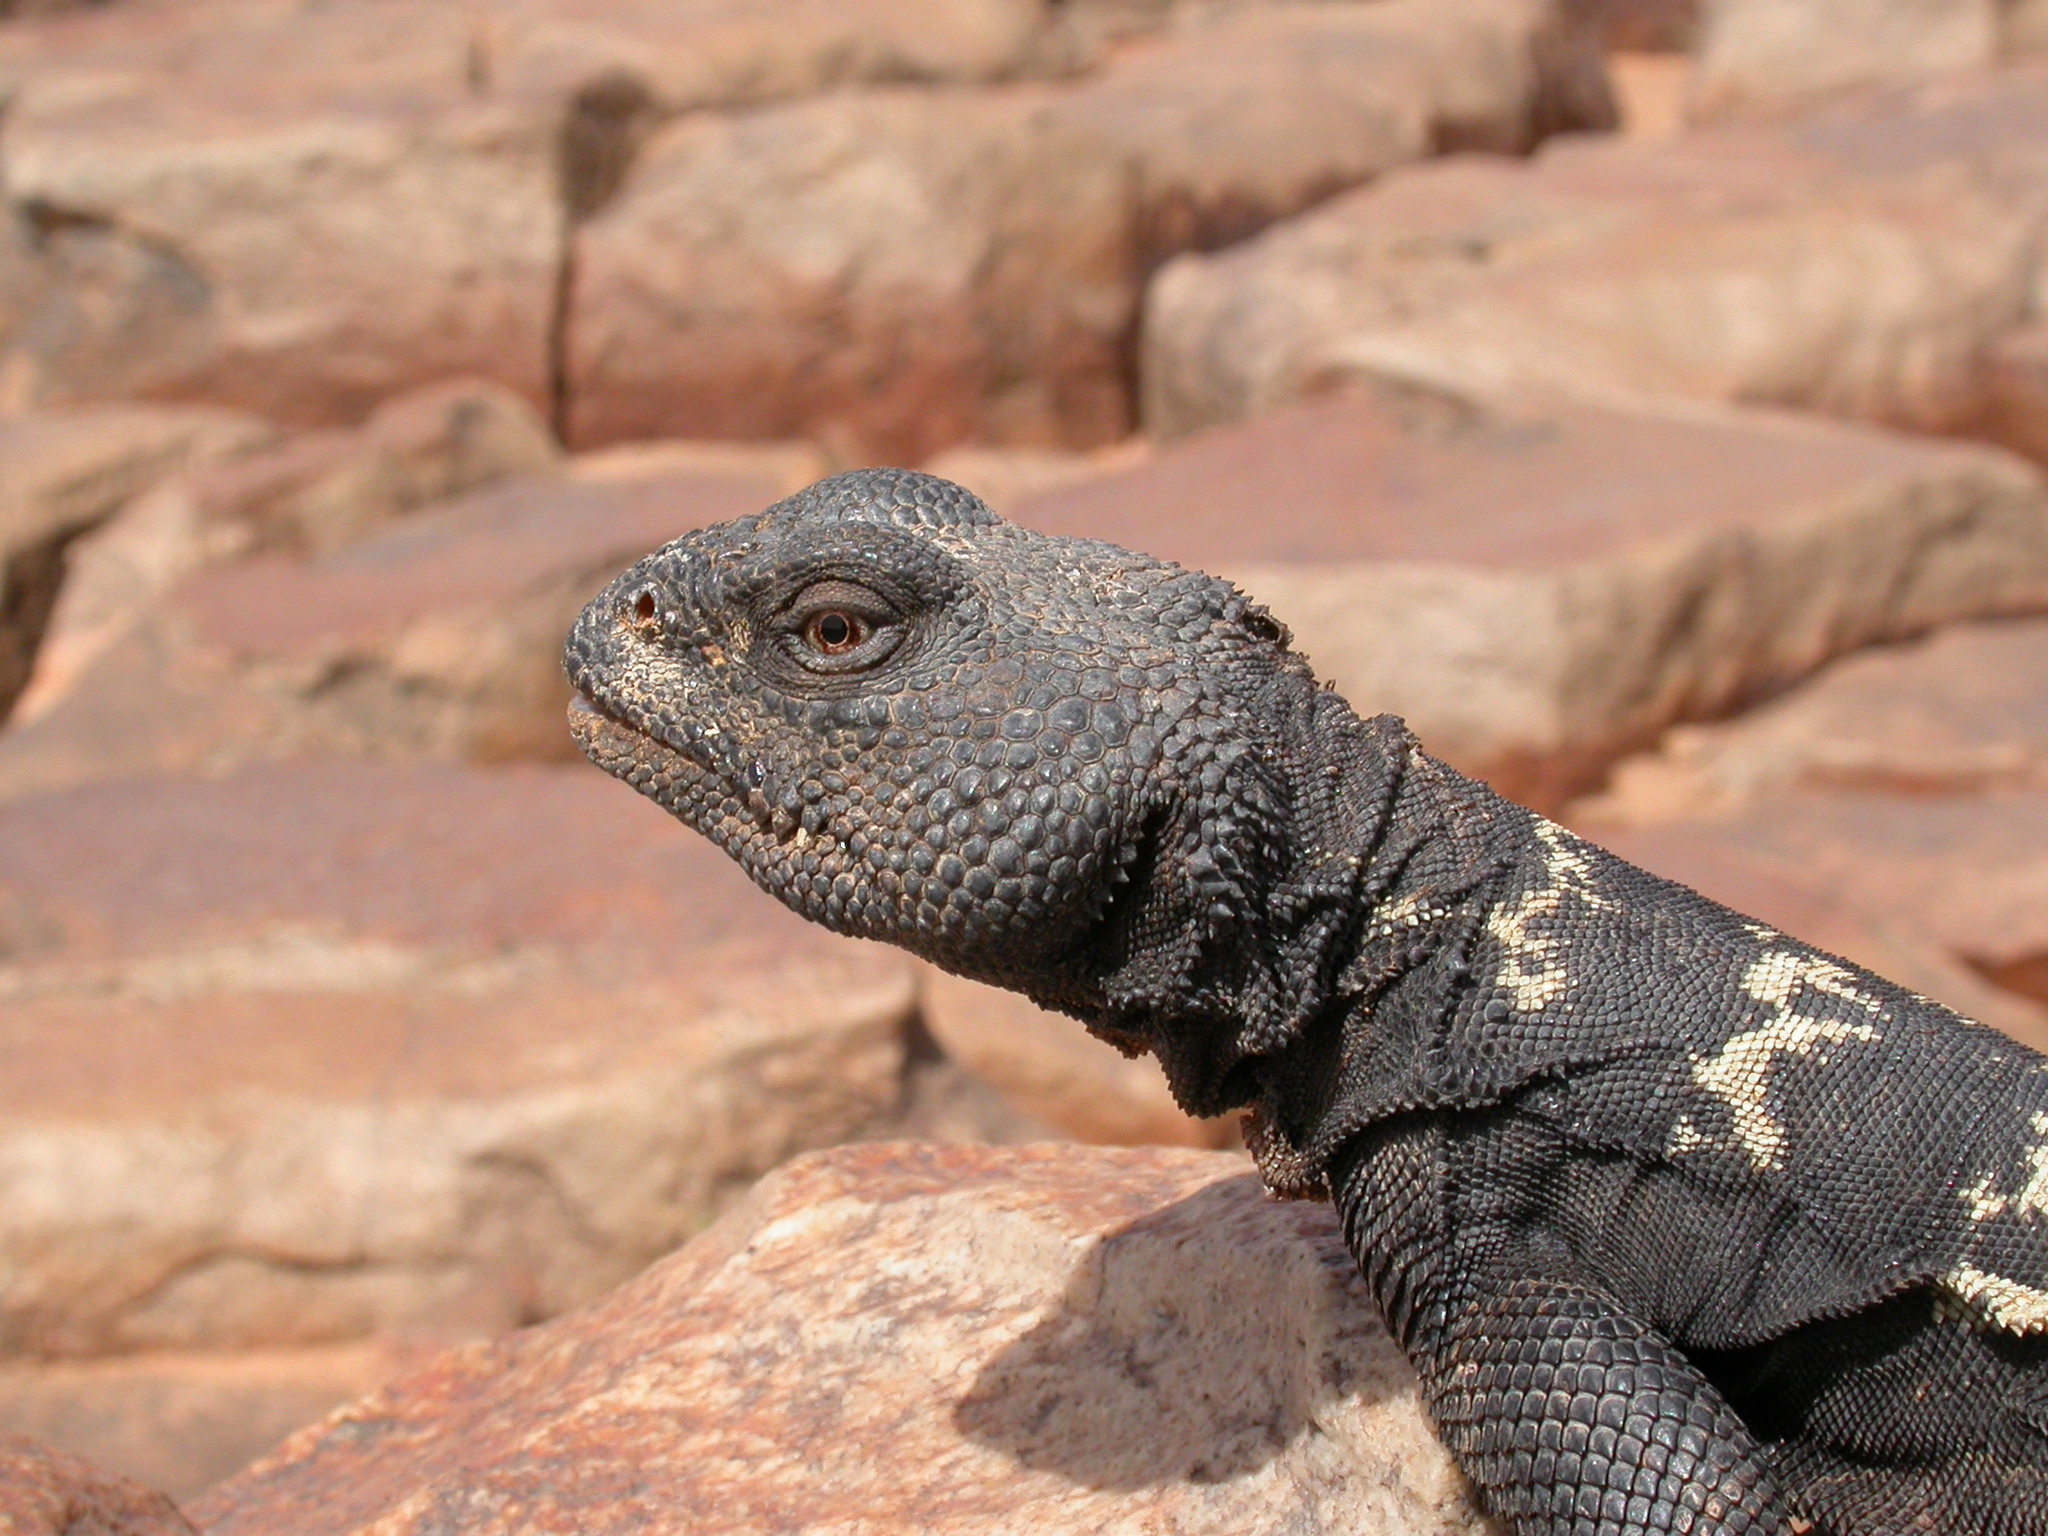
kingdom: Animalia
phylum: Chordata
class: Squamata
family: Agamidae
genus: Uromastyx
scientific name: Uromastyx dispar
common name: Sudan mastigure
